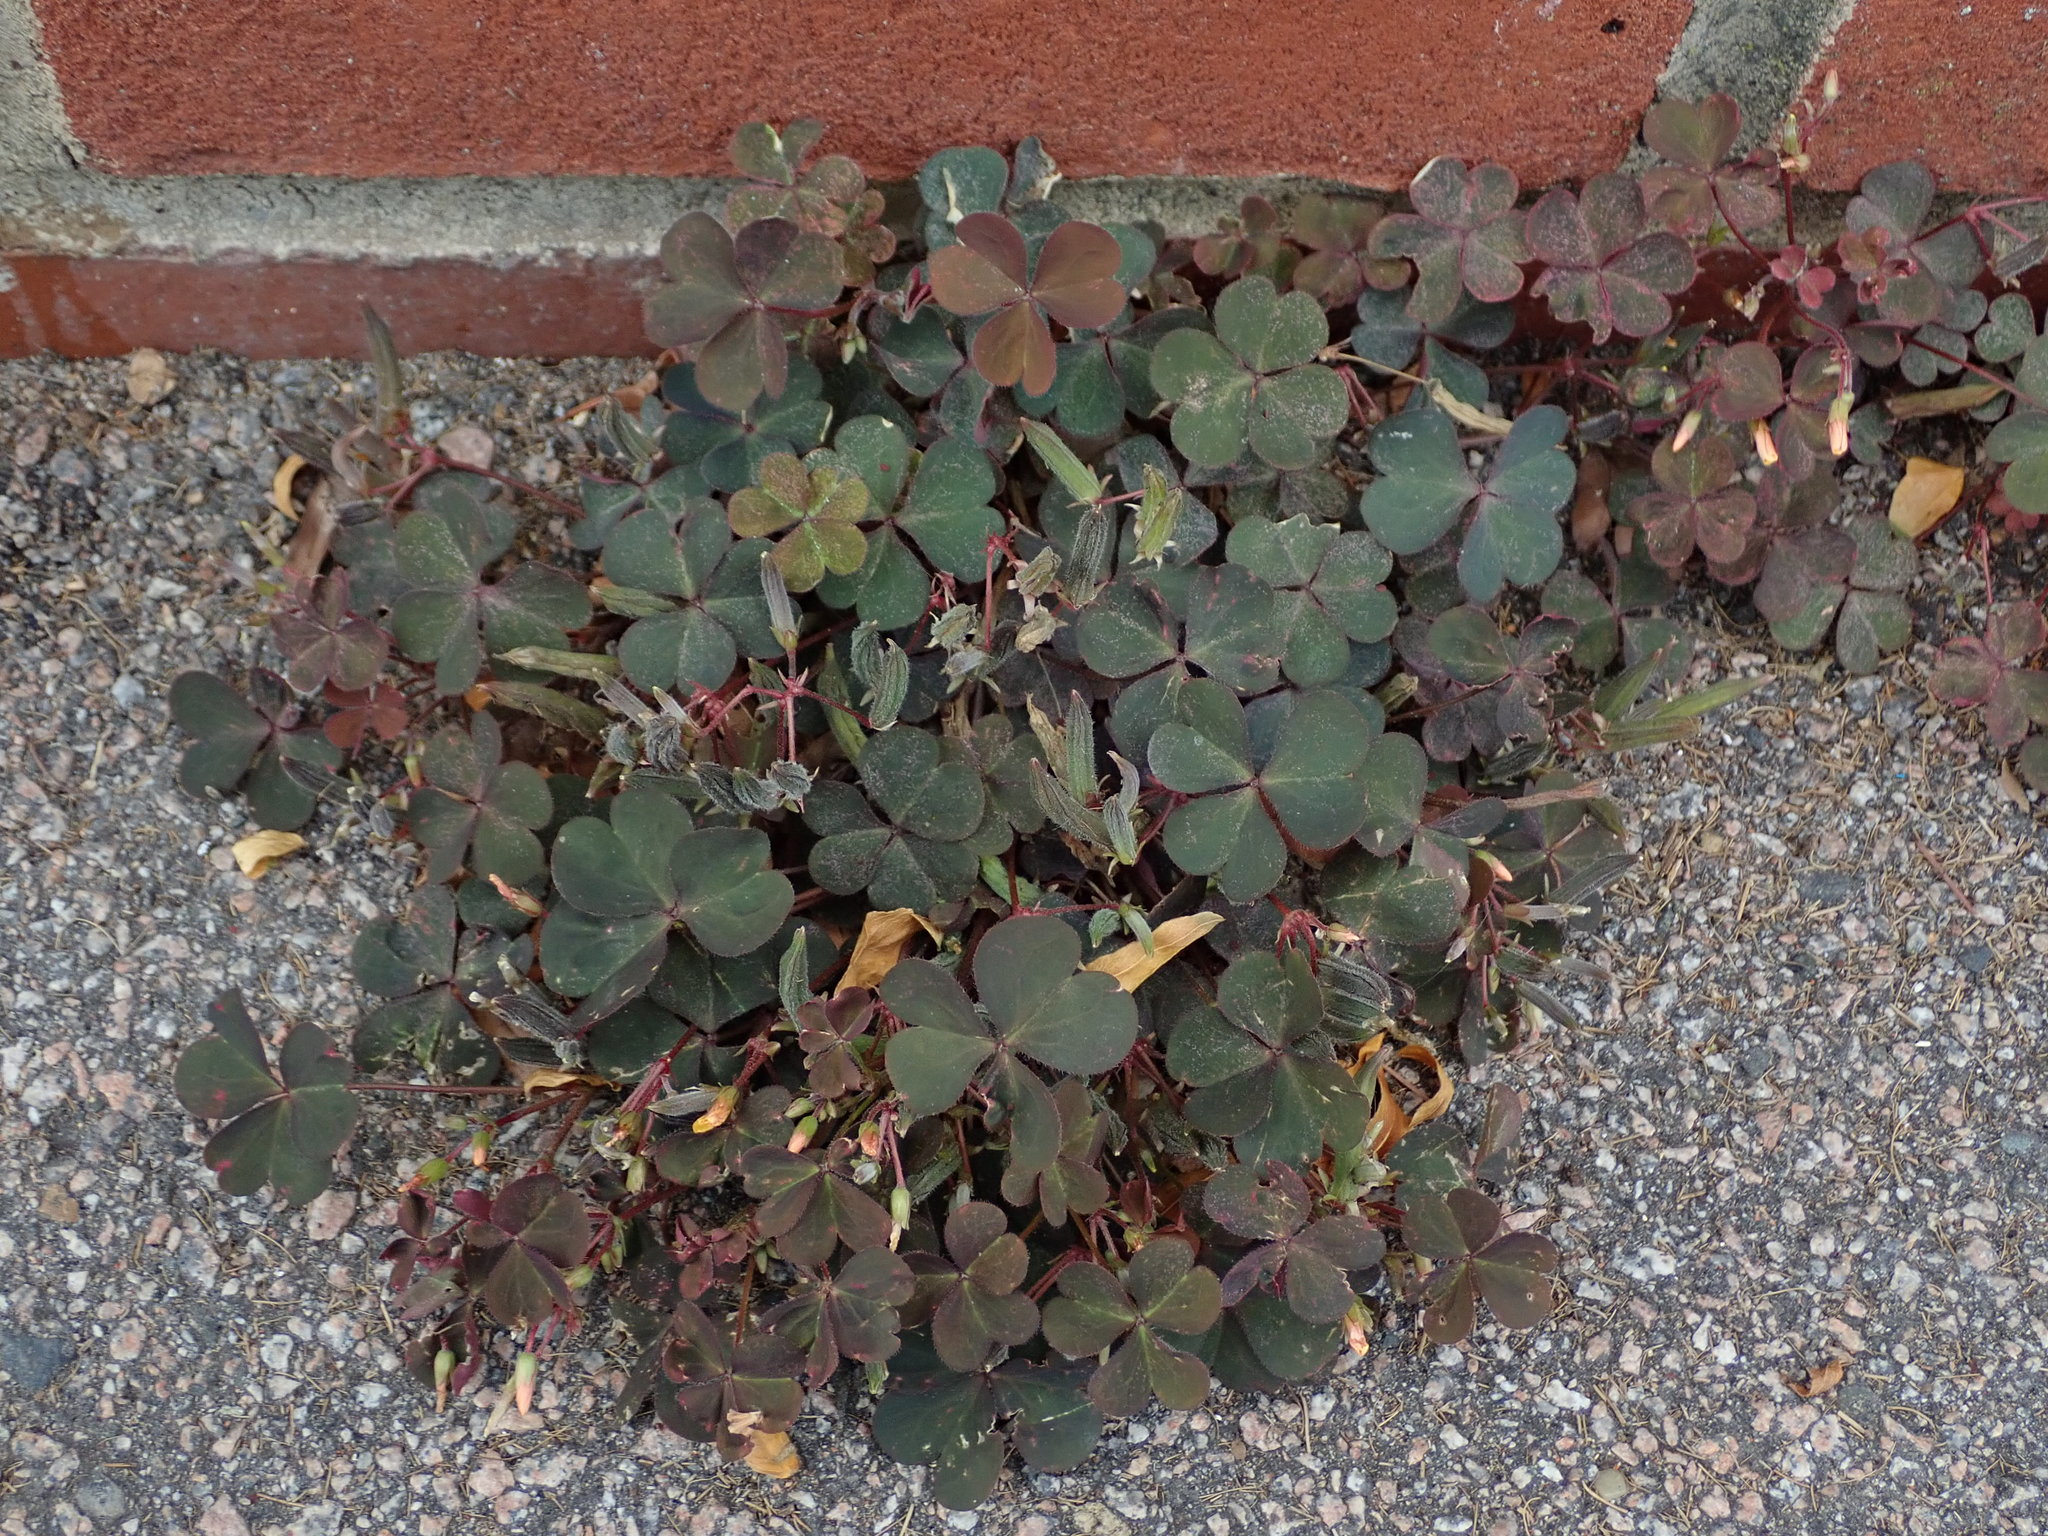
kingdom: Plantae
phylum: Tracheophyta
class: Magnoliopsida
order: Oxalidales
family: Oxalidaceae
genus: Oxalis
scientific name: Oxalis corniculata
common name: Procumbent yellow-sorrel
